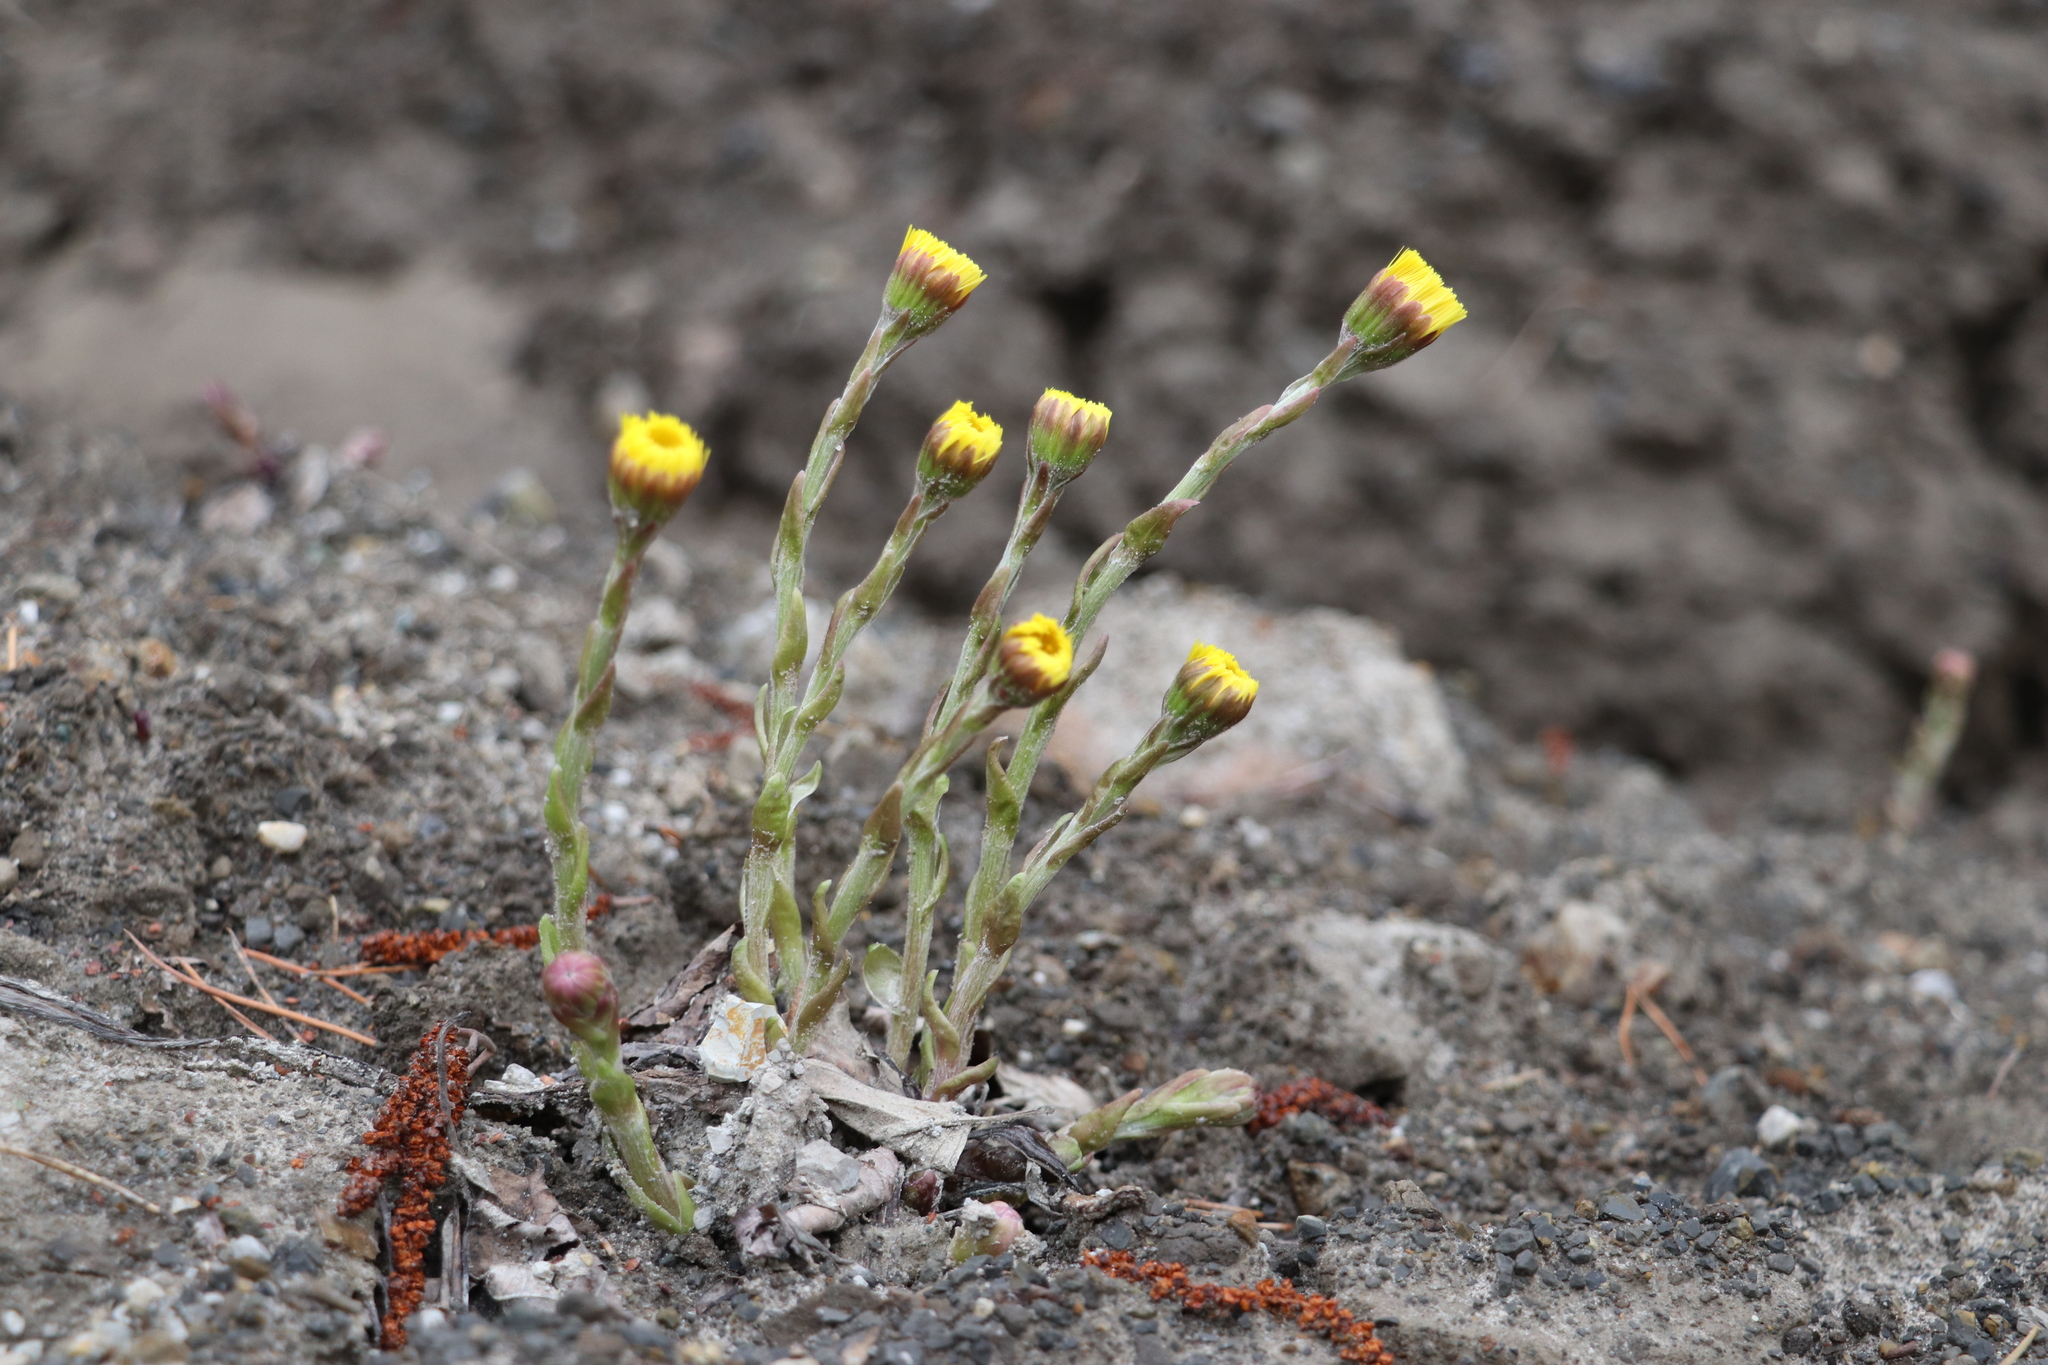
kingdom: Plantae
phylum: Tracheophyta
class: Magnoliopsida
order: Asterales
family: Asteraceae
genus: Tussilago
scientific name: Tussilago farfara
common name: Coltsfoot
